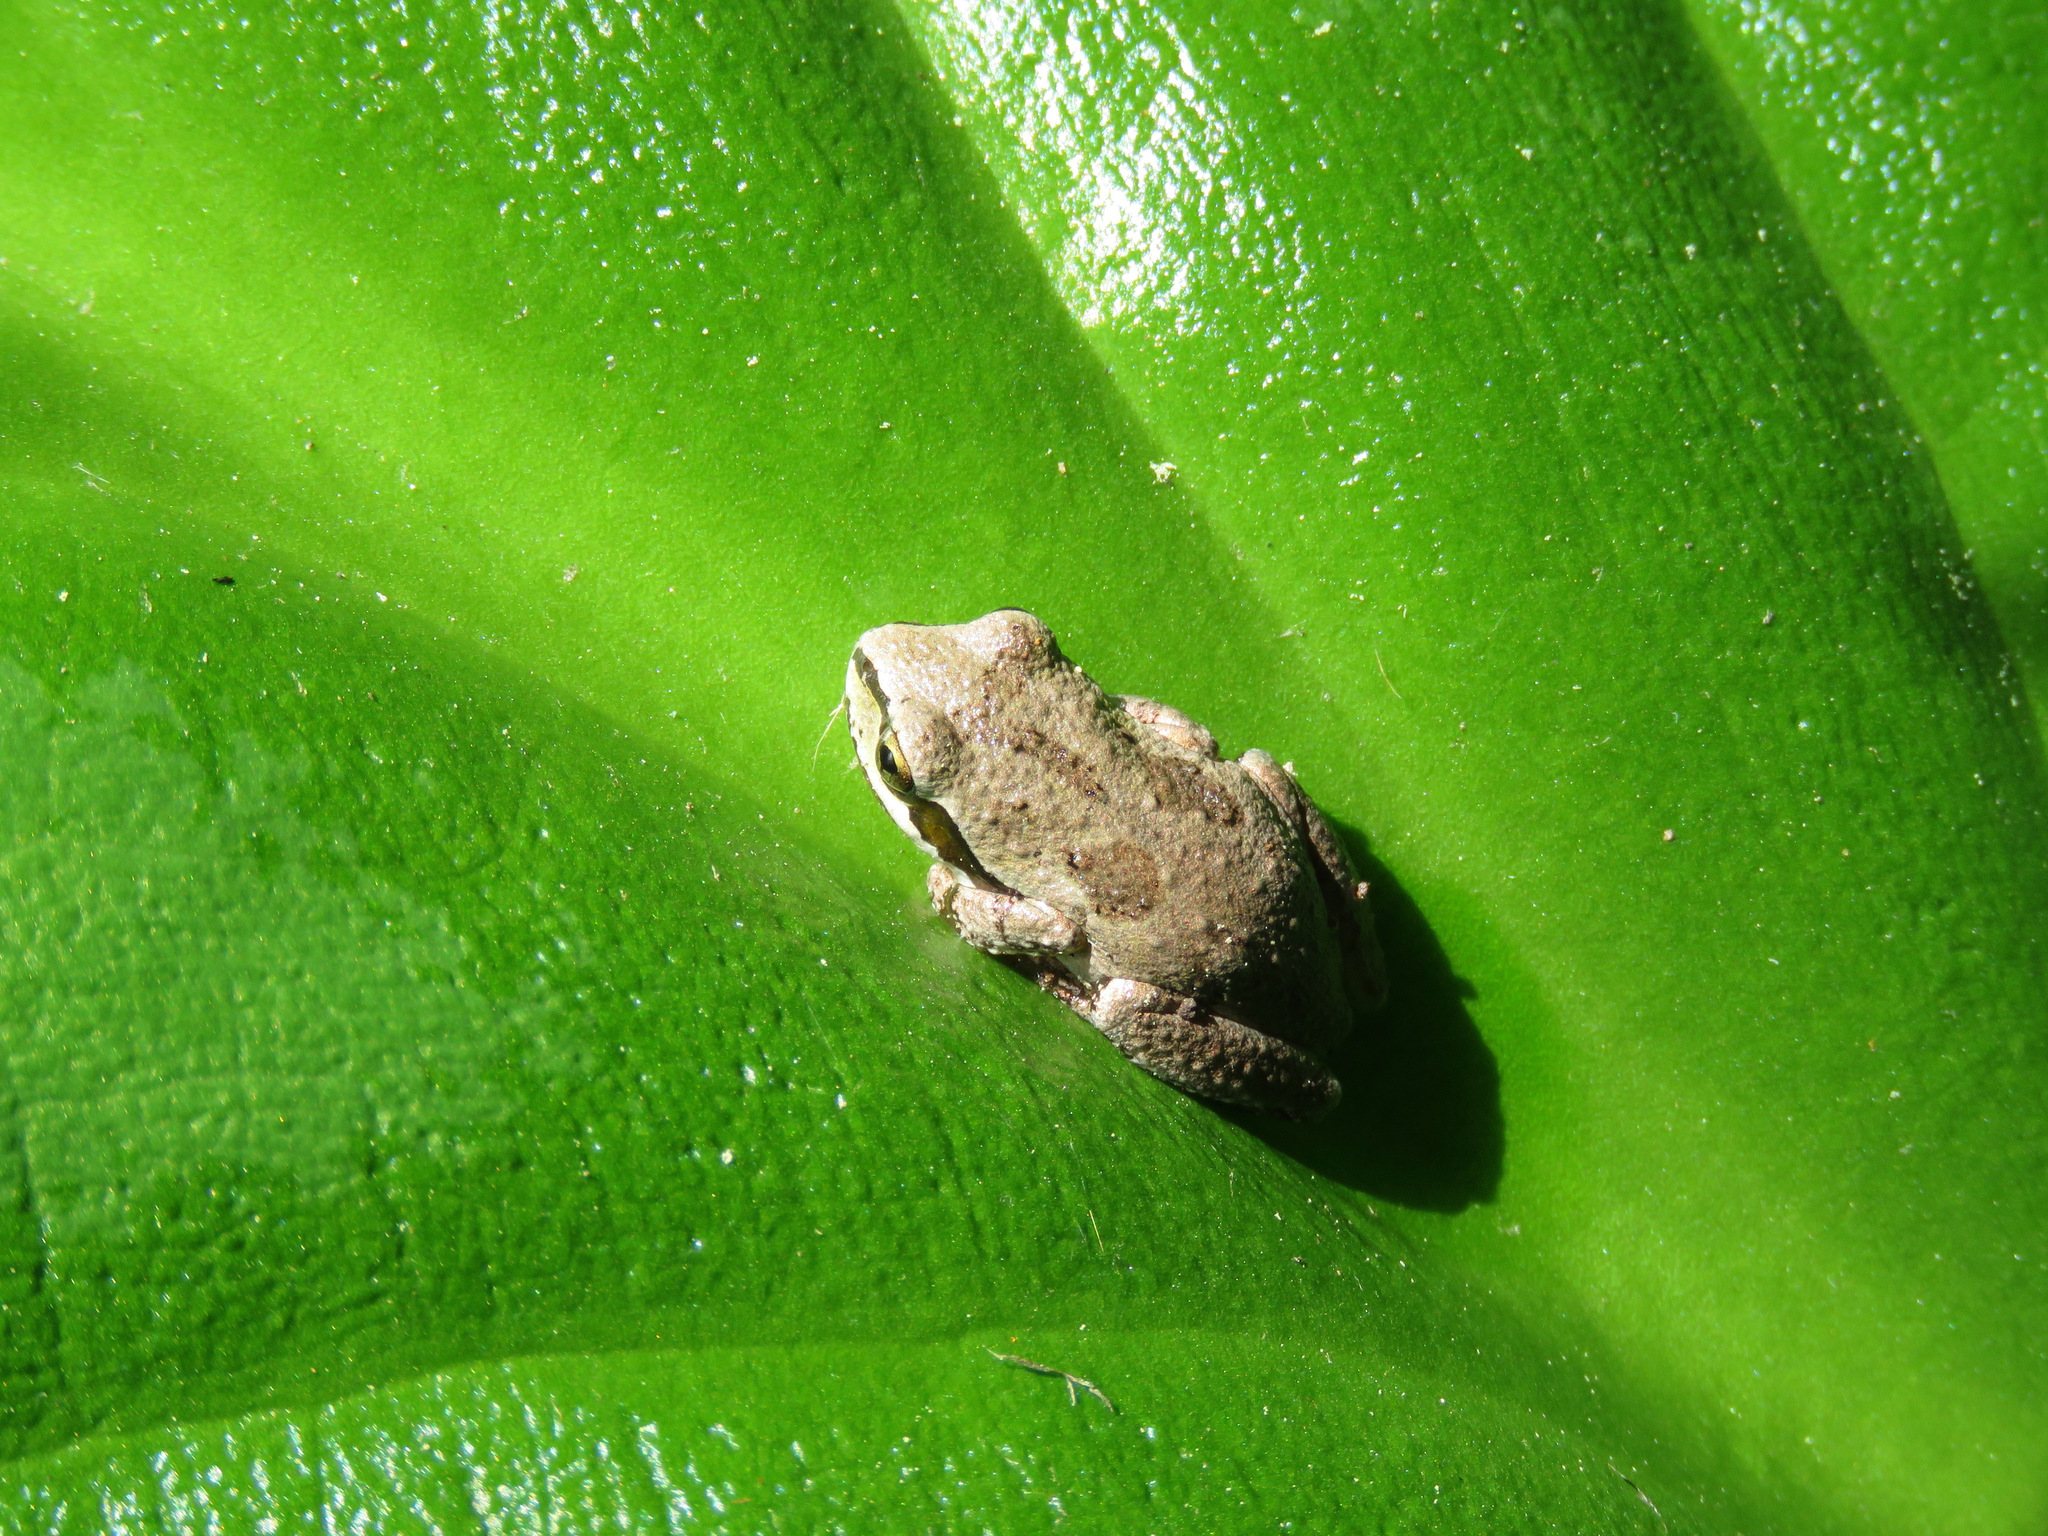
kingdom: Animalia
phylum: Chordata
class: Amphibia
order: Anura
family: Hylidae
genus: Pseudacris
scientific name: Pseudacris regilla
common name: Pacific chorus frog
